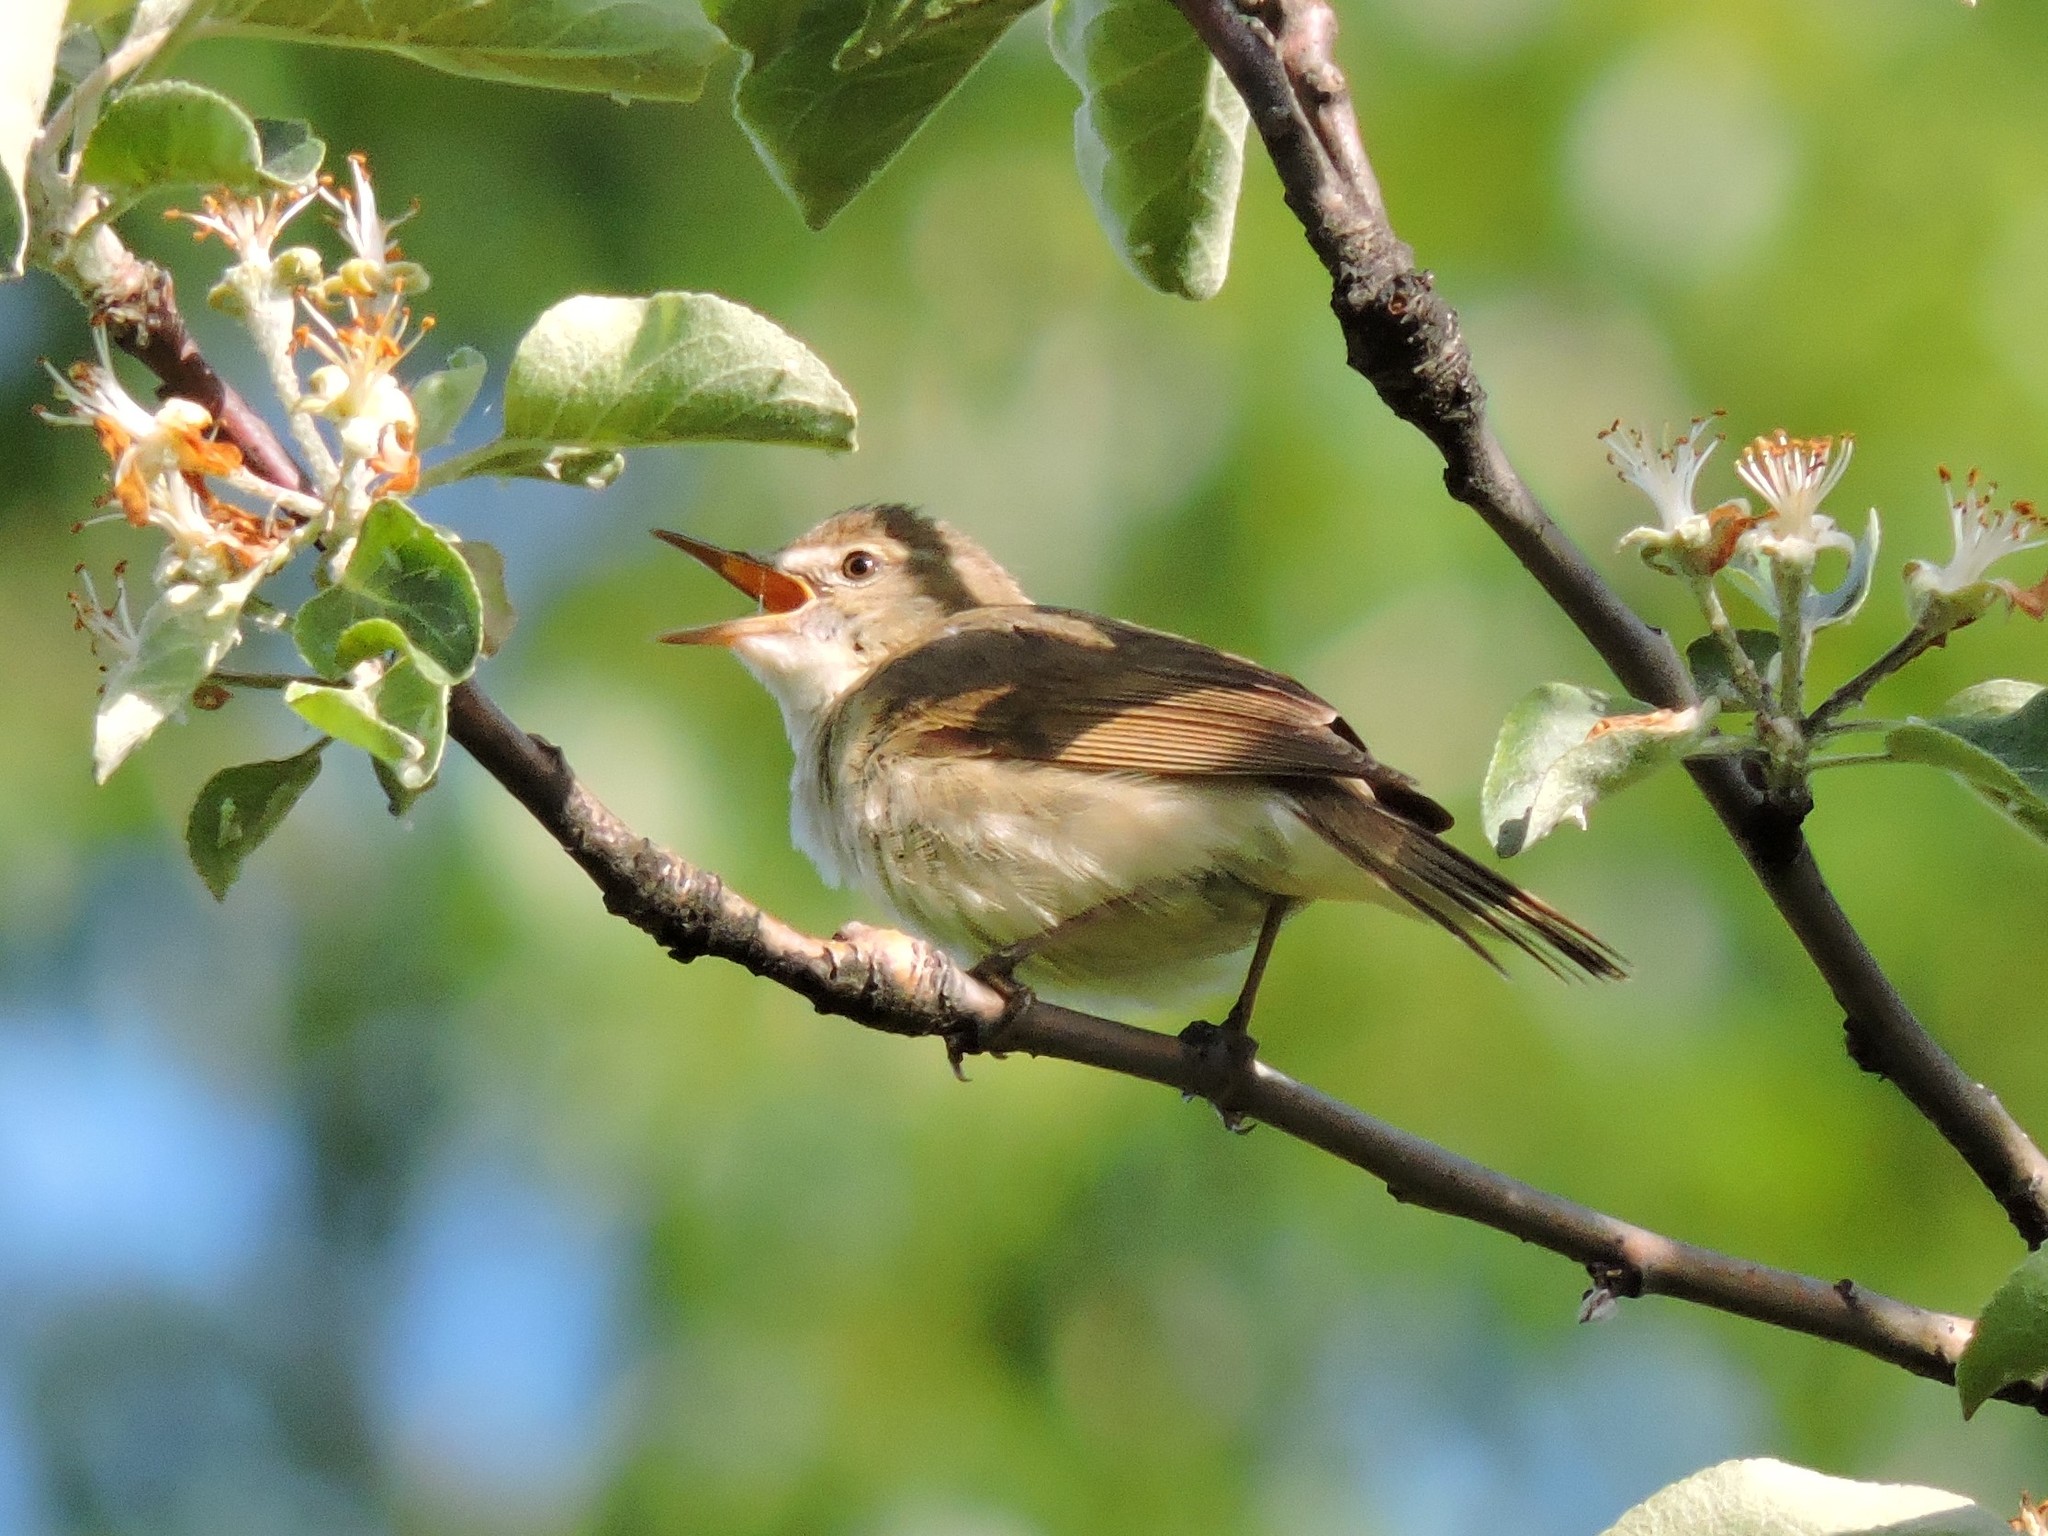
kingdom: Animalia
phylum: Chordata
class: Aves
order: Passeriformes
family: Acrocephalidae
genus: Acrocephalus
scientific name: Acrocephalus dumetorum
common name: Blyth's reed warbler
